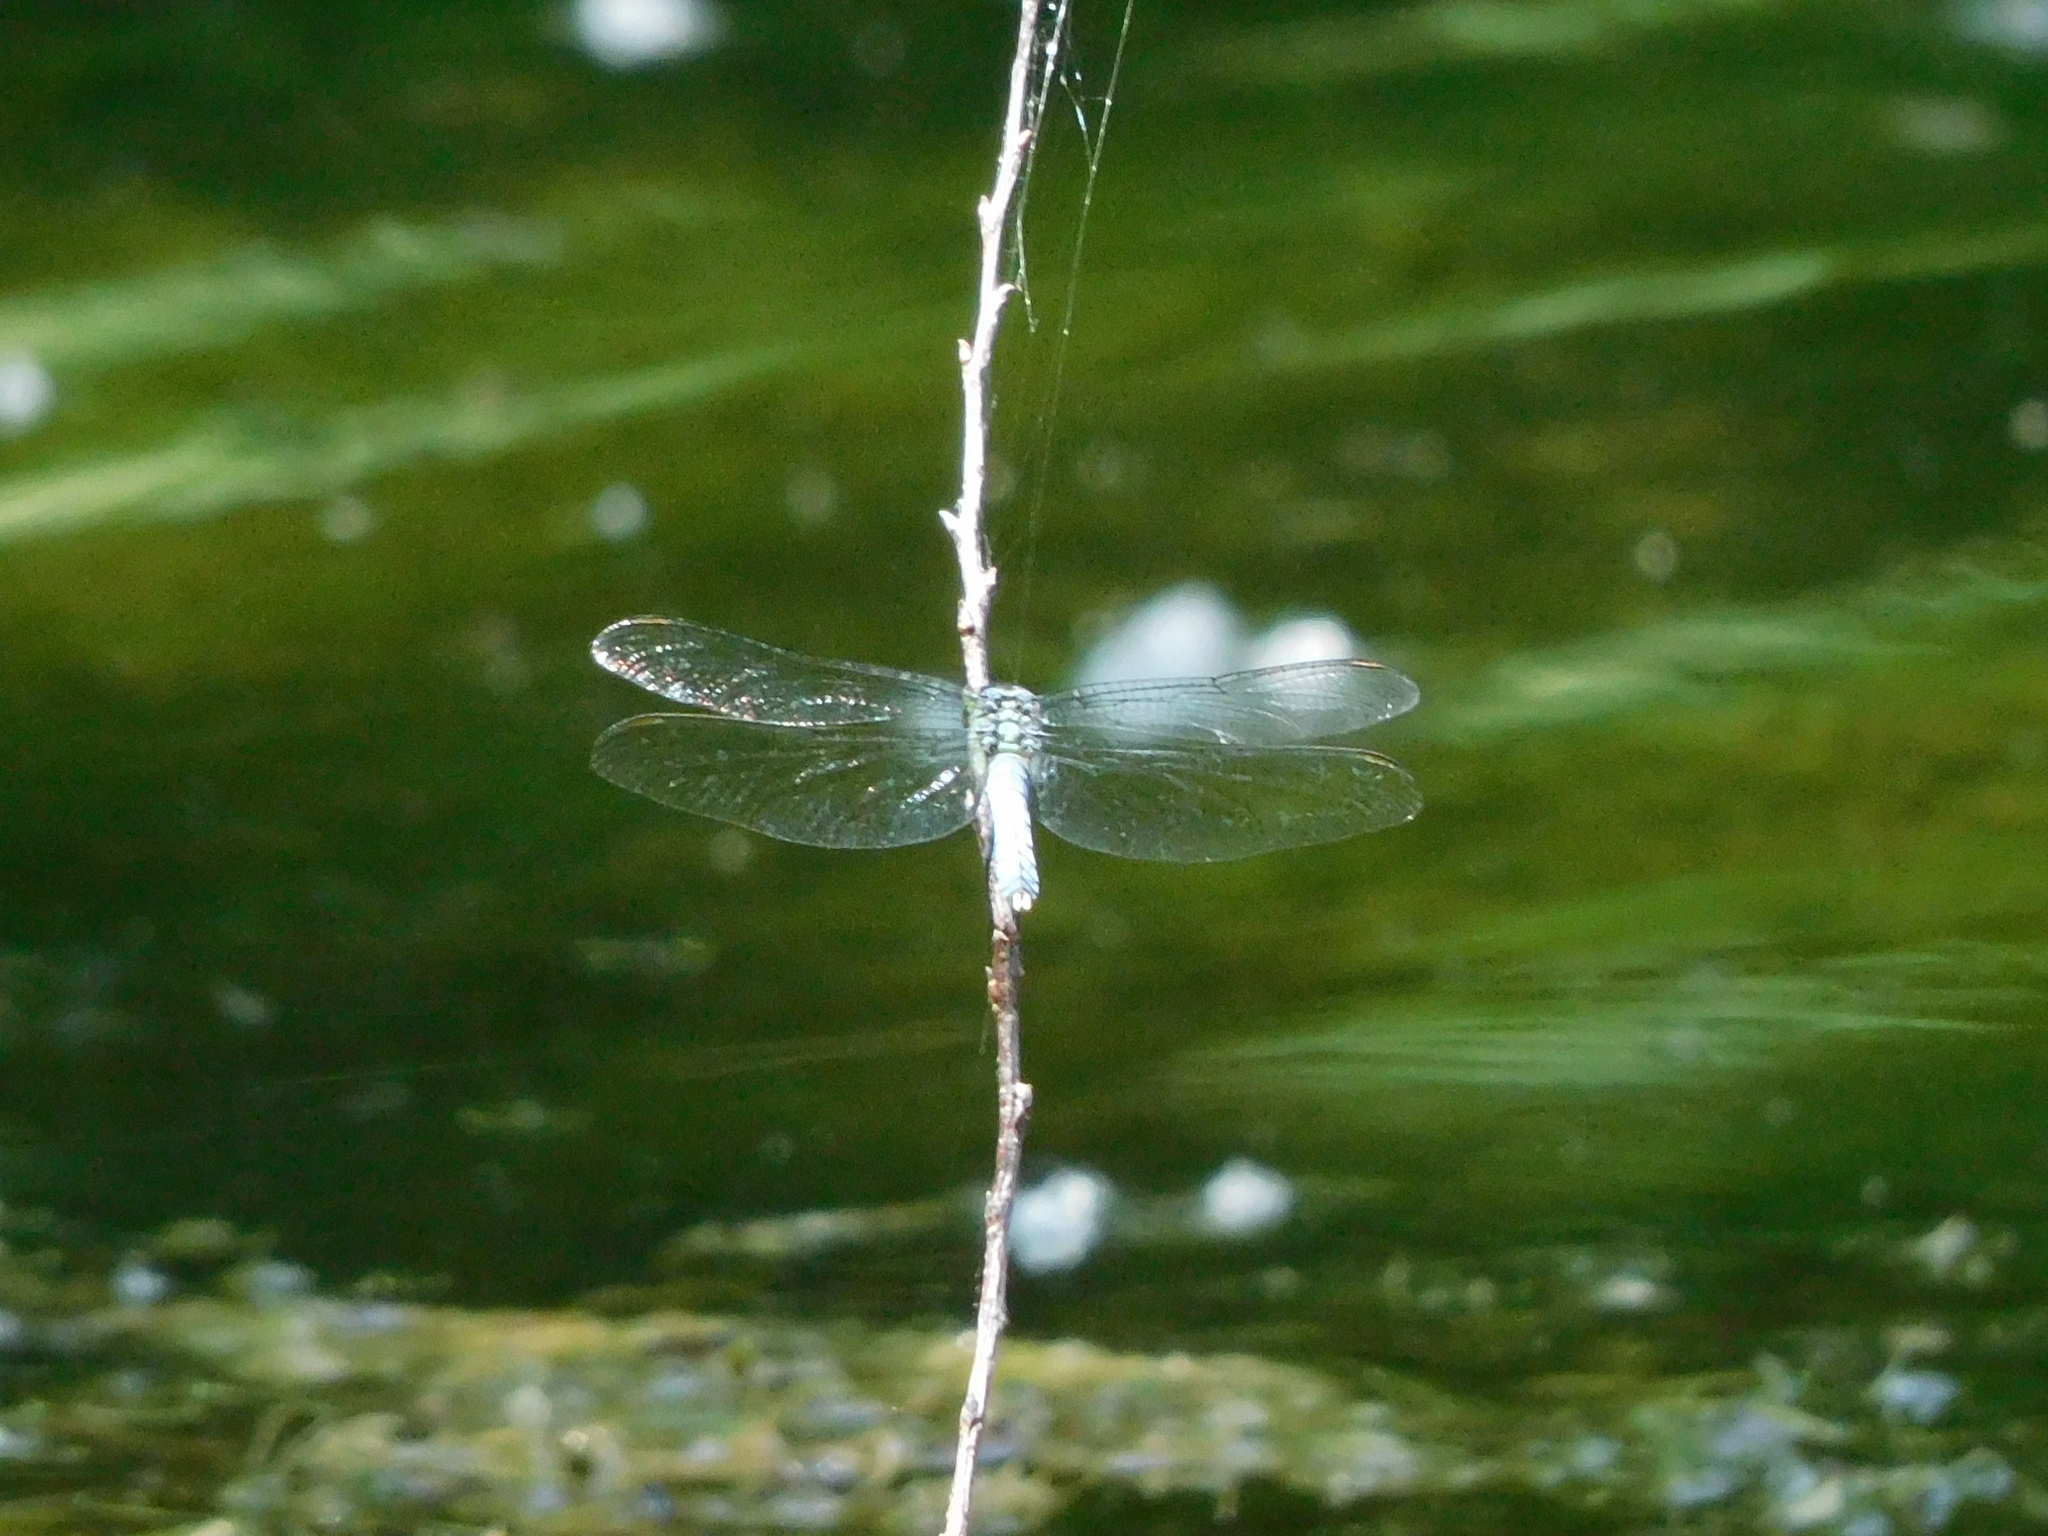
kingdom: Animalia
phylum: Arthropoda
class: Insecta
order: Odonata
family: Libellulidae
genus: Erythemis
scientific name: Erythemis simplicicollis
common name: Eastern pondhawk
